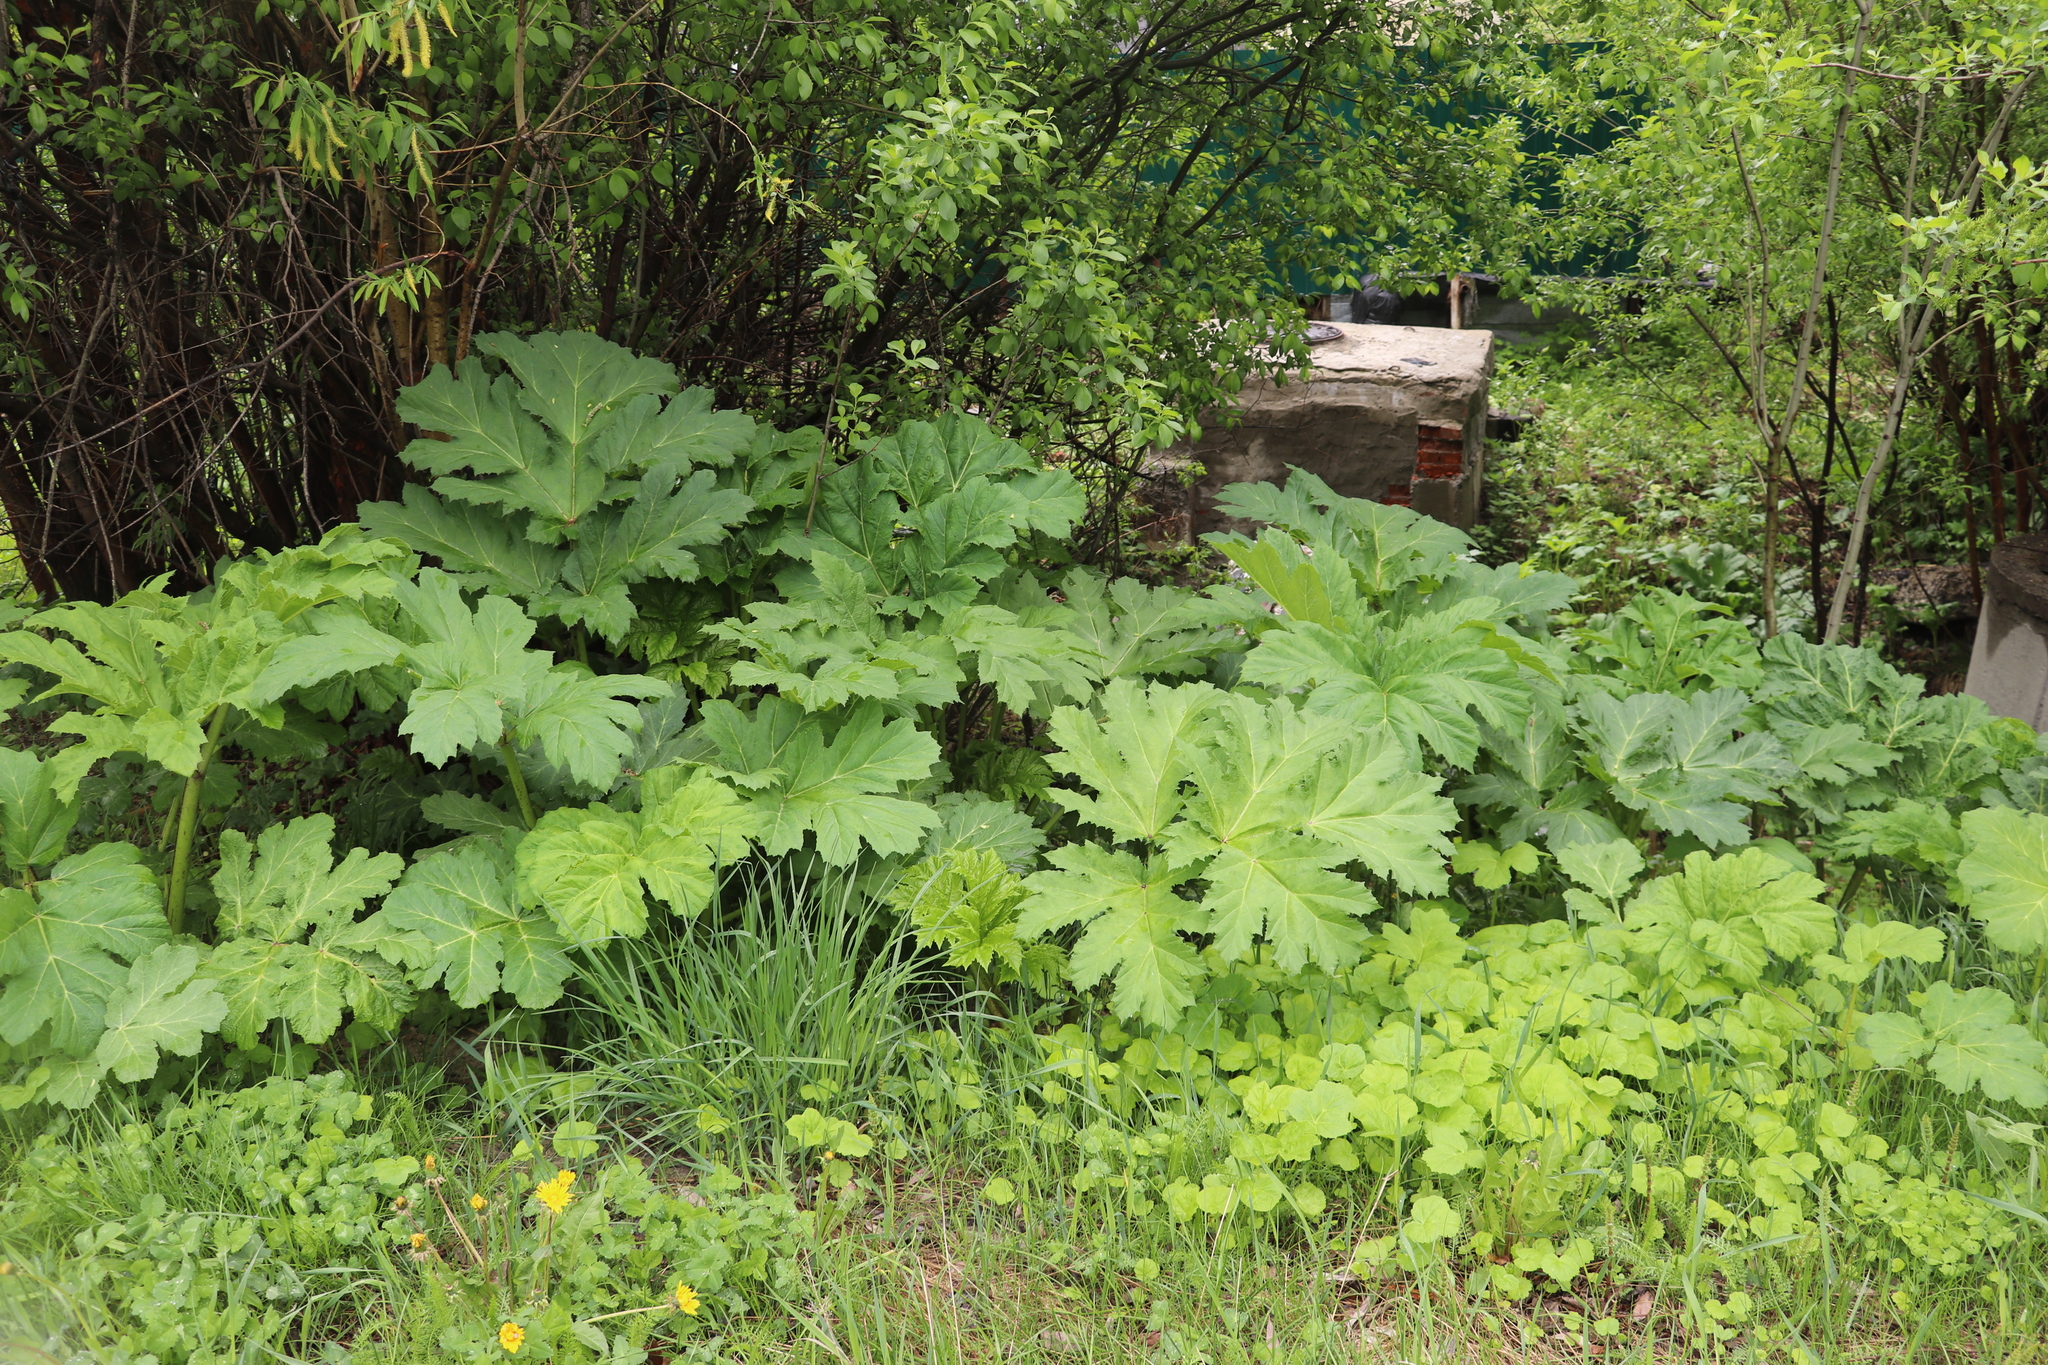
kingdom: Plantae
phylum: Tracheophyta
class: Magnoliopsida
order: Apiales
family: Apiaceae
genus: Heracleum
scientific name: Heracleum sosnowskyi
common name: Sosnowsky's hogweed
